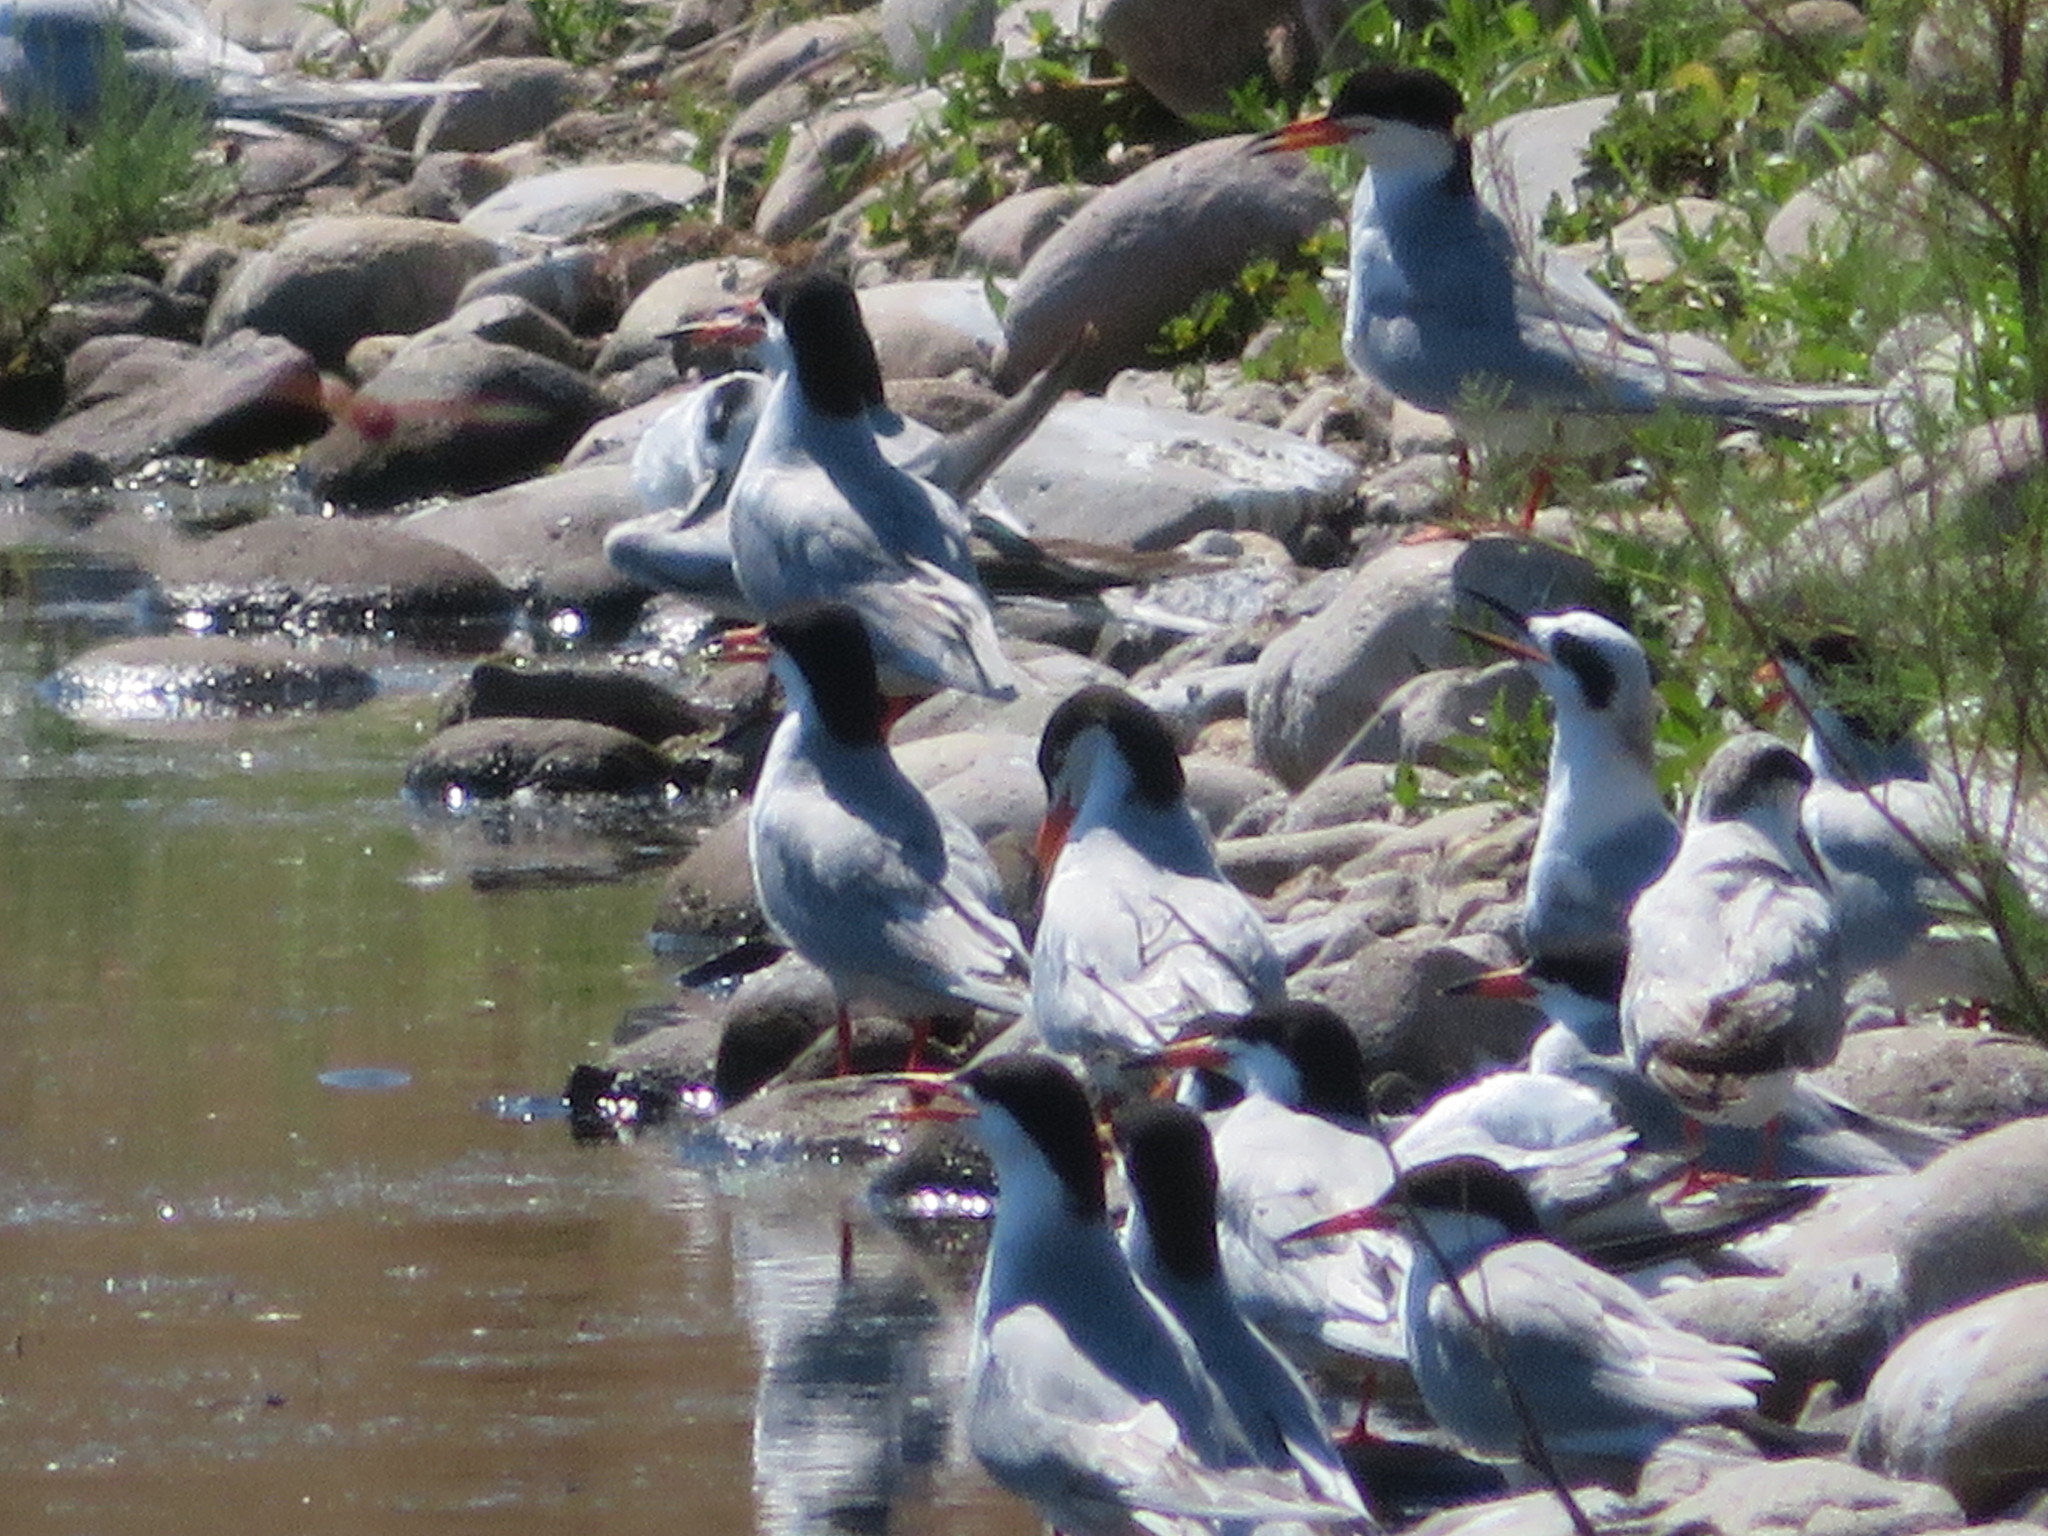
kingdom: Animalia
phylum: Chordata
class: Aves
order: Charadriiformes
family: Laridae
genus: Sterna
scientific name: Sterna forsteri
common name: Forster's tern
